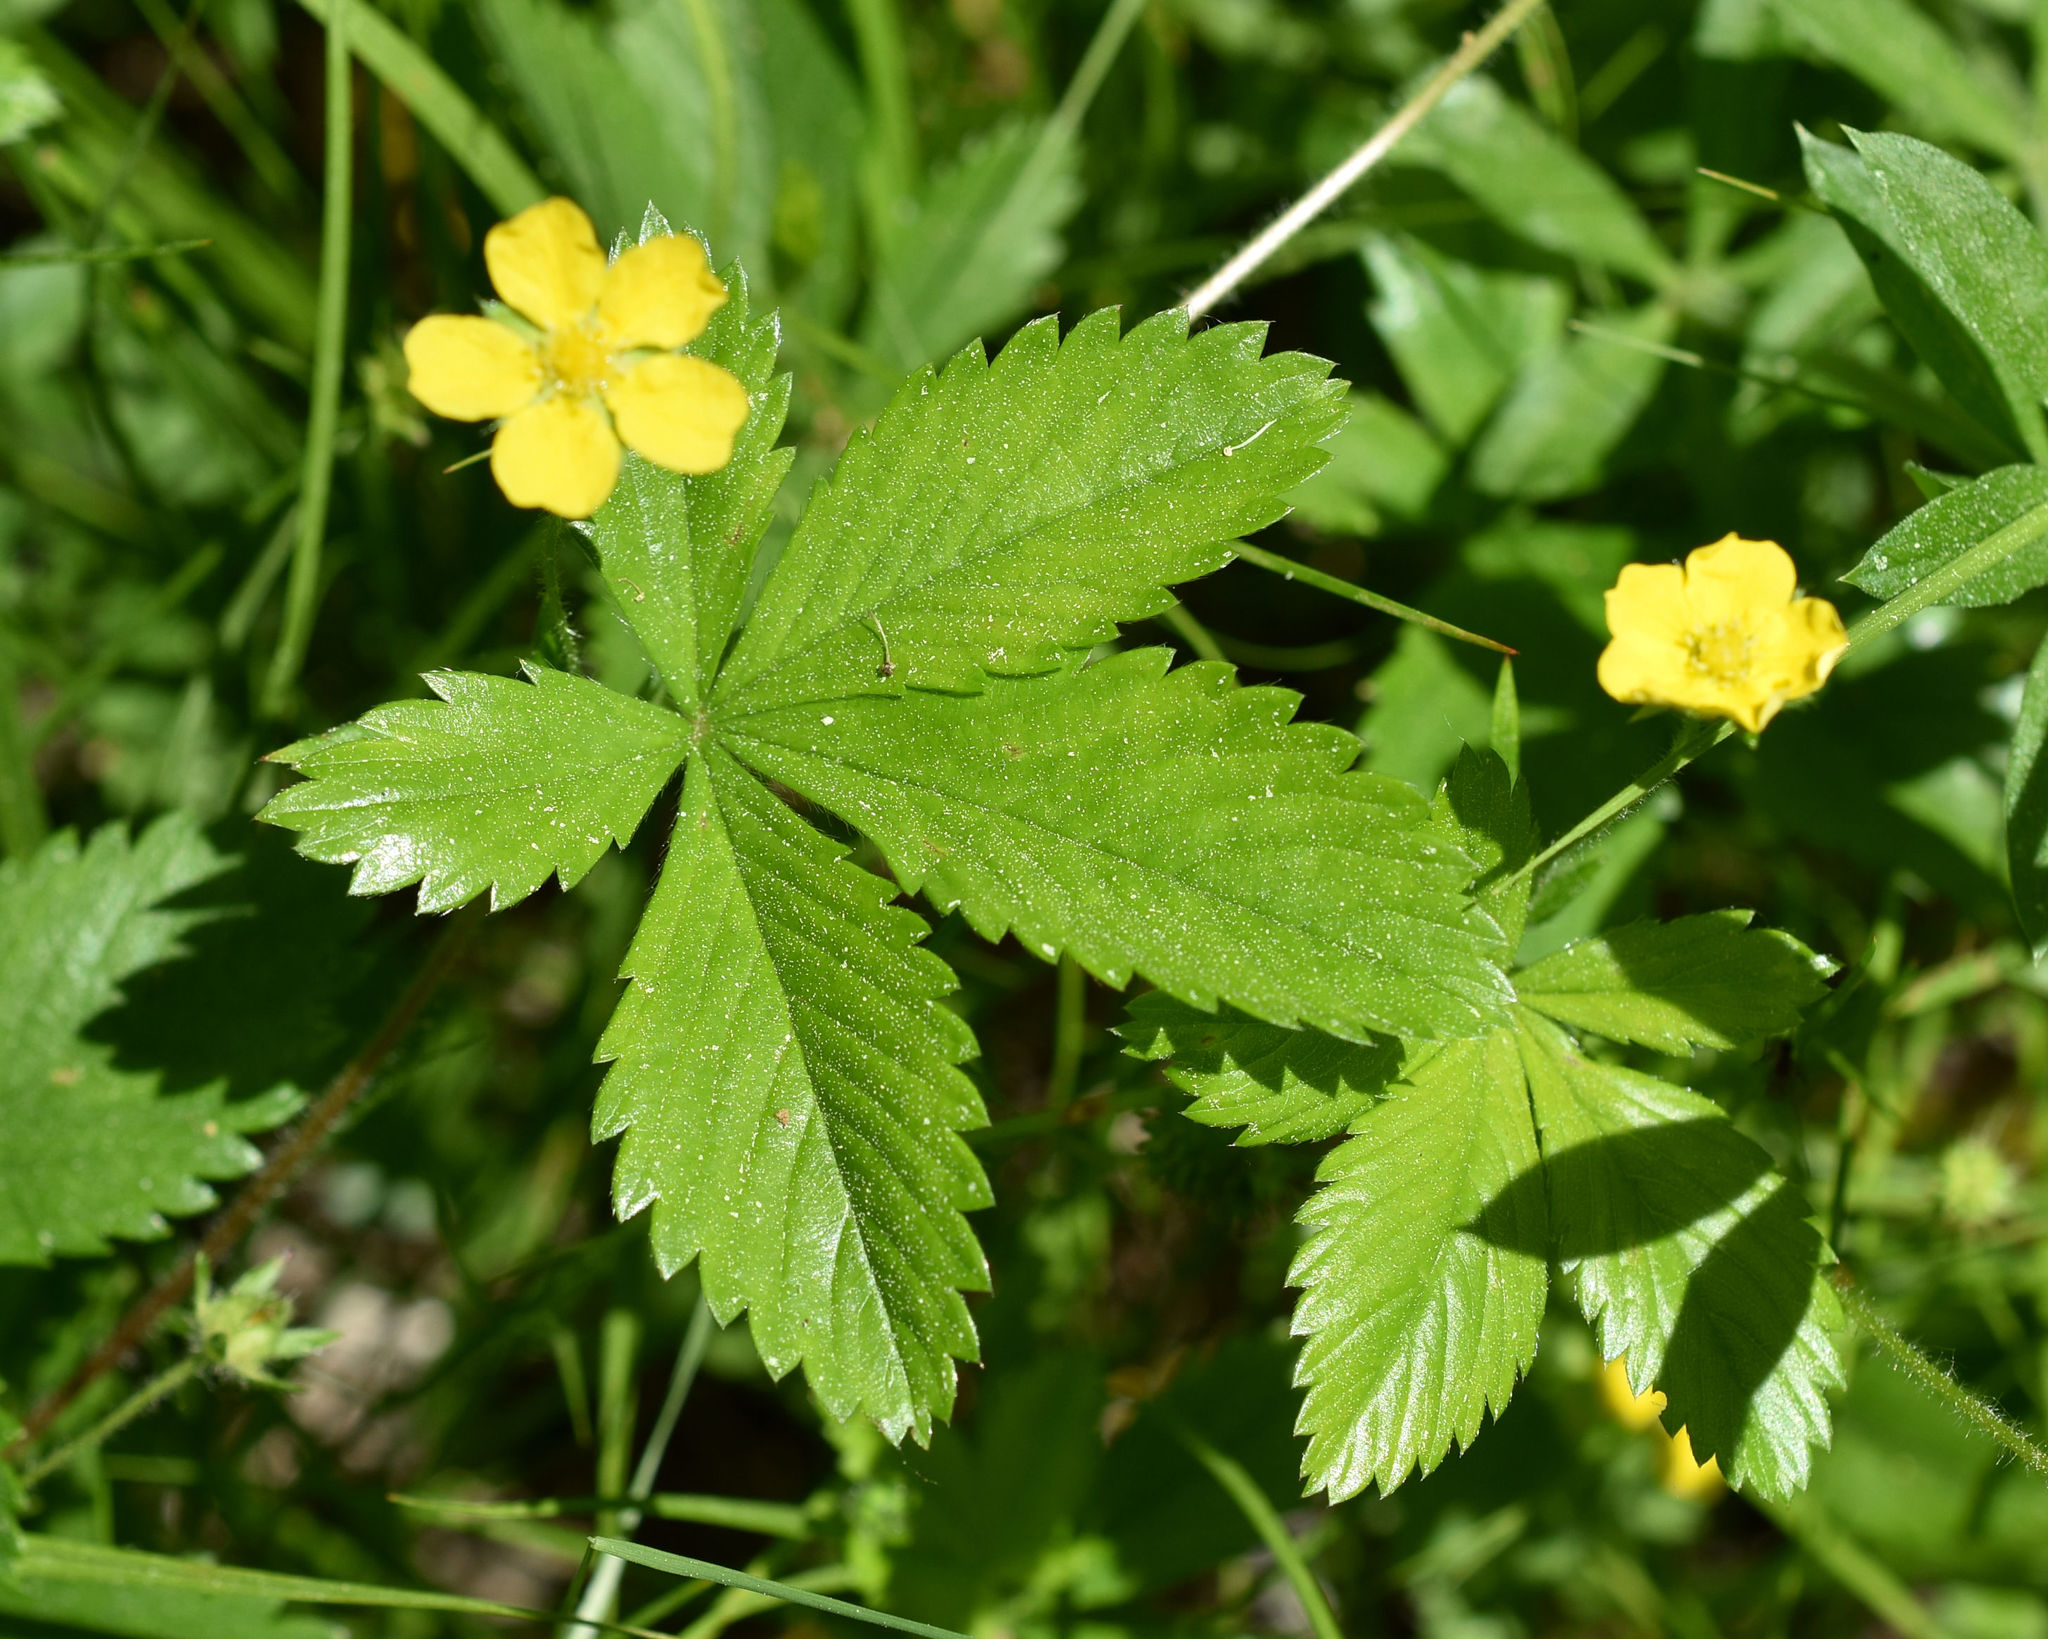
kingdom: Plantae
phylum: Tracheophyta
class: Magnoliopsida
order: Rosales
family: Rosaceae
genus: Potentilla
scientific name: Potentilla simplex
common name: Old field cinquefoil
